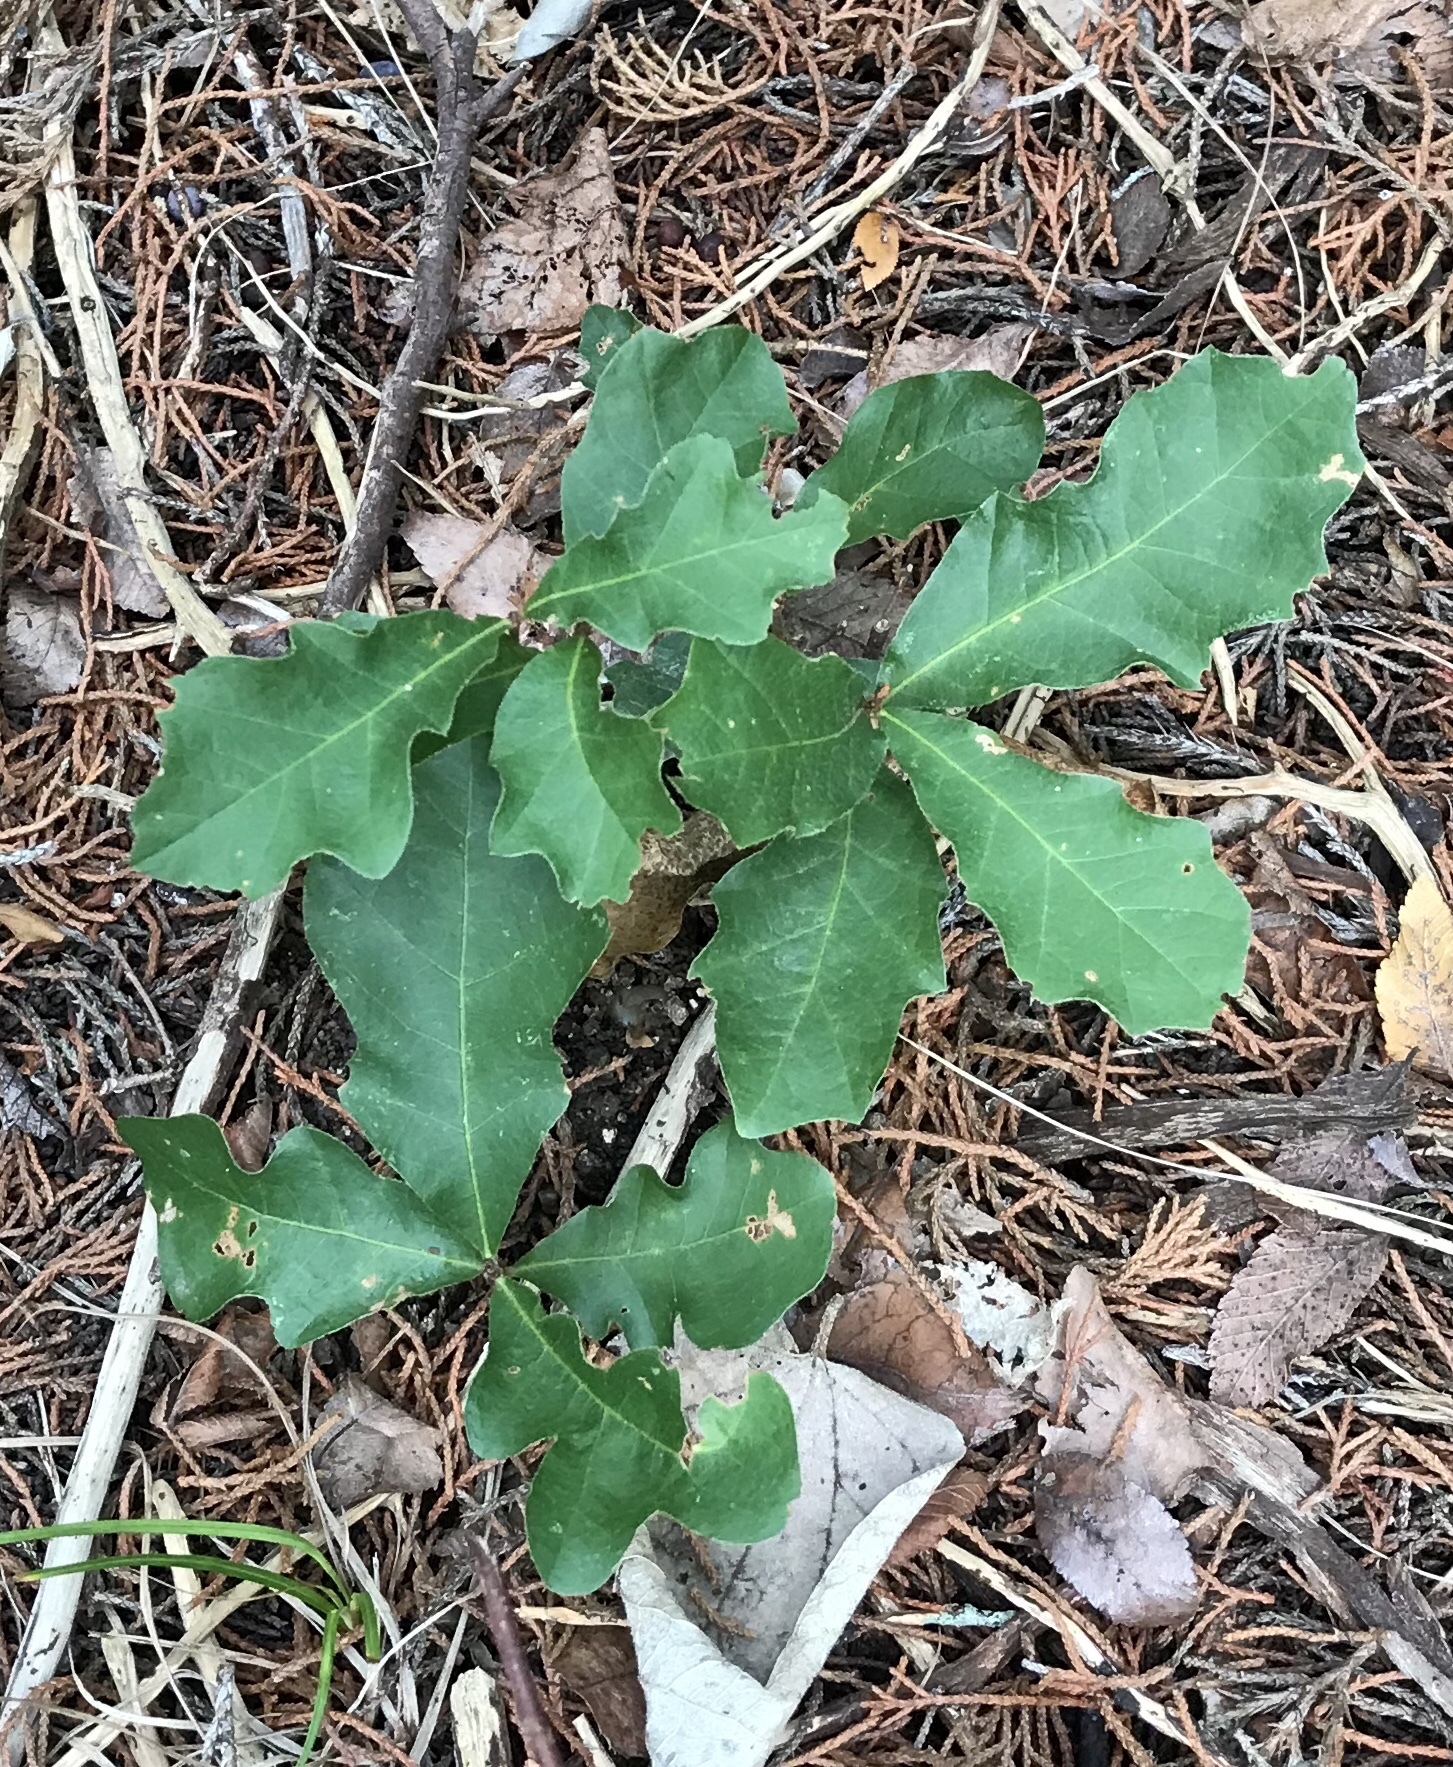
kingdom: Plantae
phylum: Tracheophyta
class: Magnoliopsida
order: Fagales
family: Fagaceae
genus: Quercus
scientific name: Quercus sinuata
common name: Durand oak
